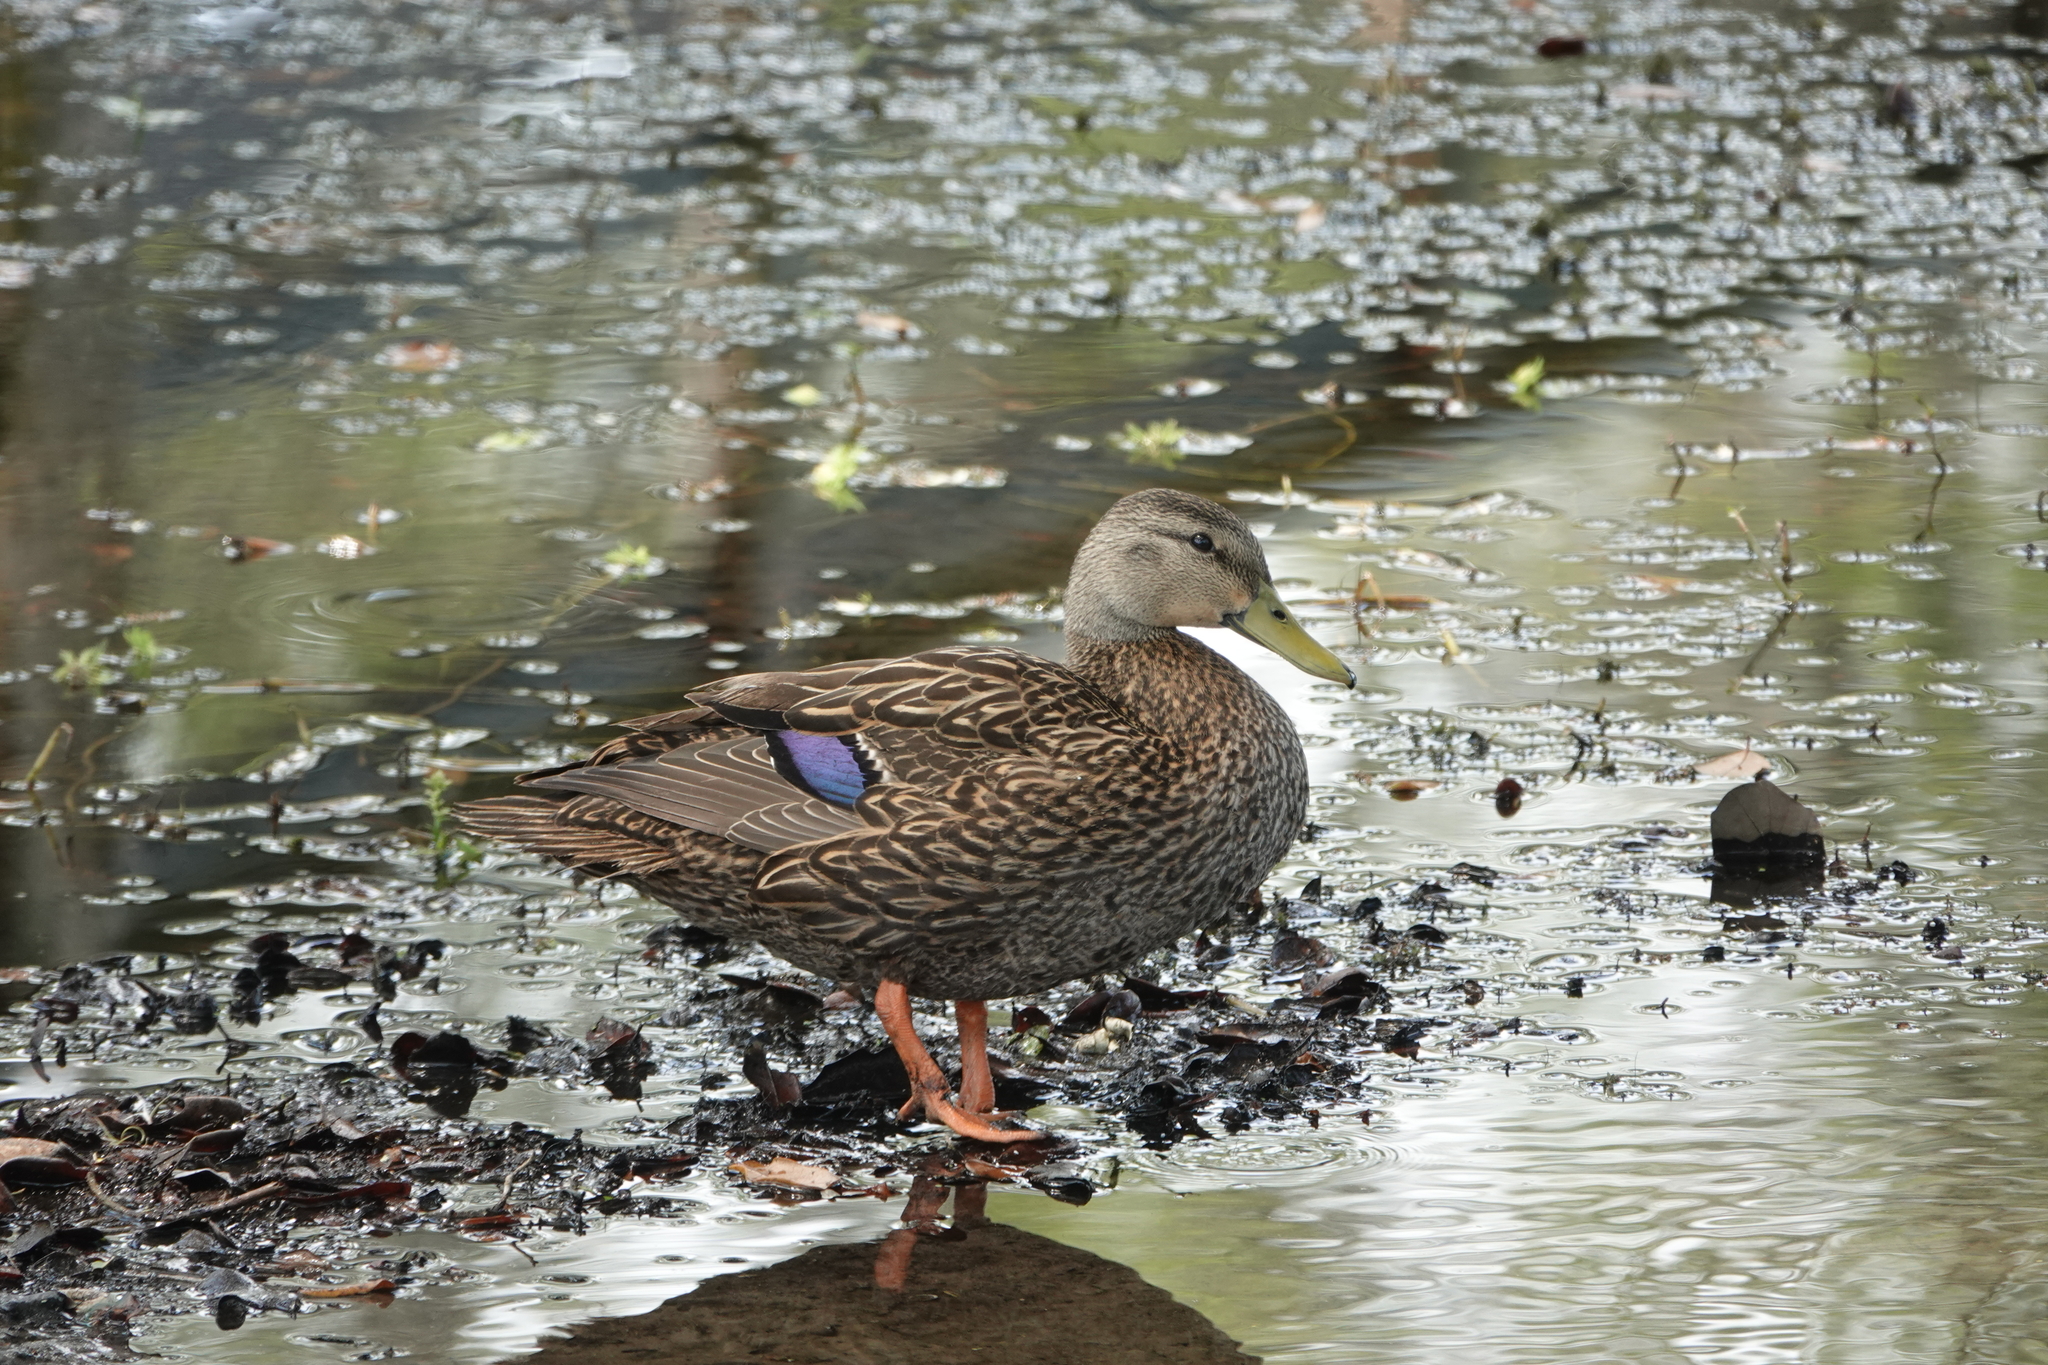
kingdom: Animalia
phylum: Chordata
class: Aves
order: Anseriformes
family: Anatidae
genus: Anas
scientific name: Anas fulvigula
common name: Mottled duck
